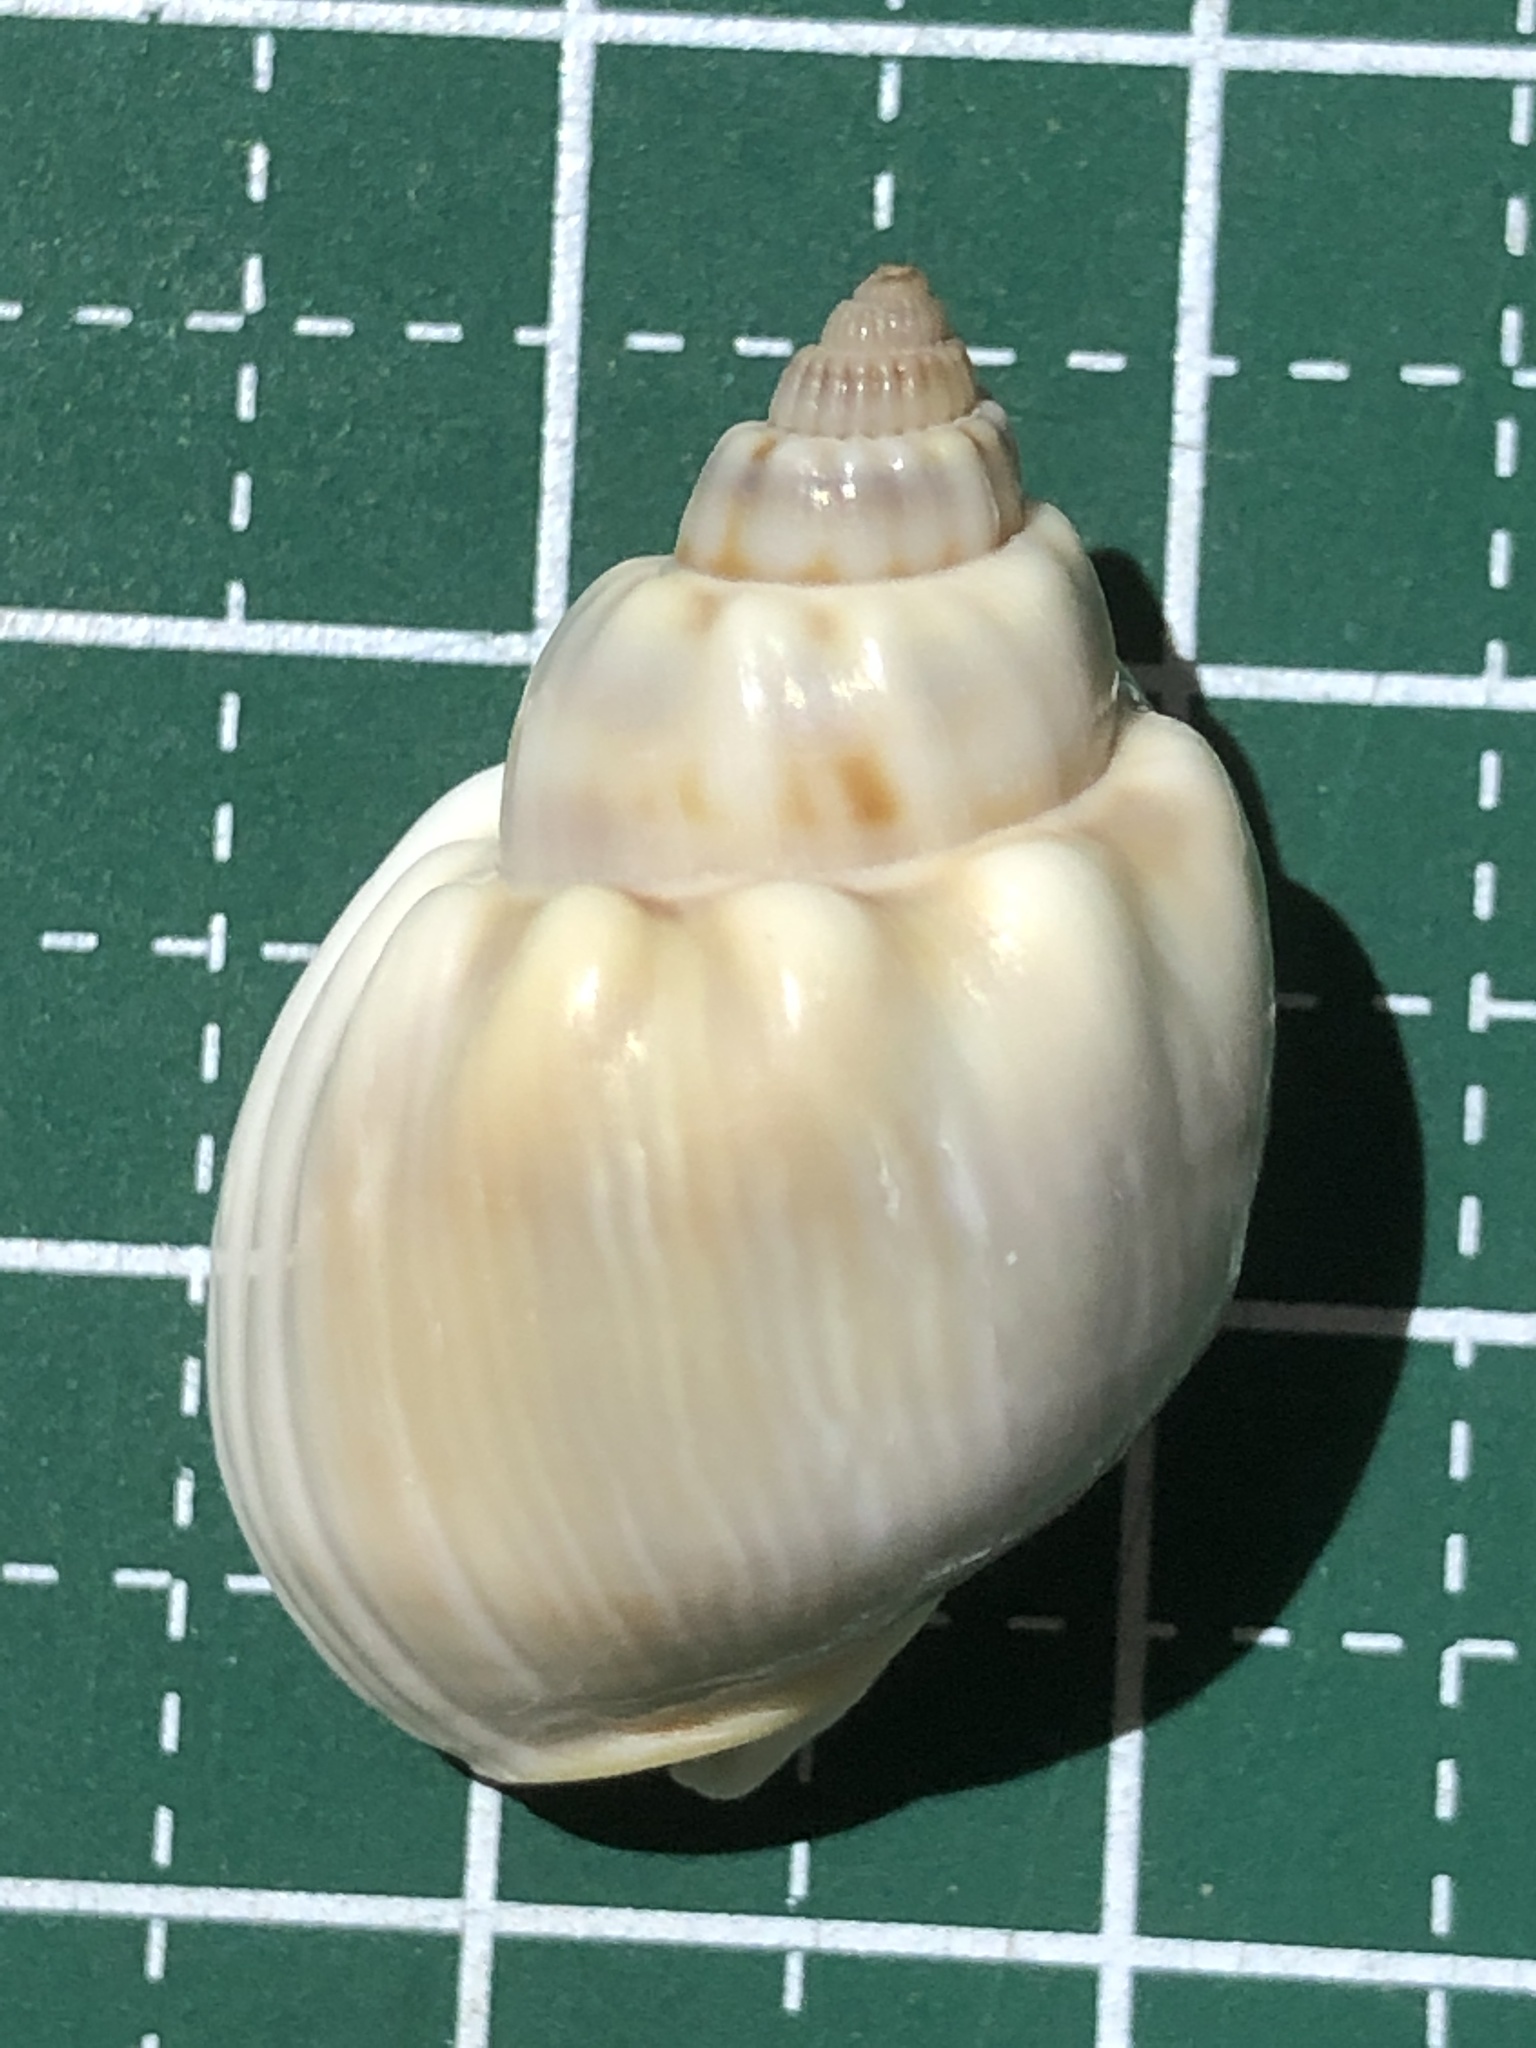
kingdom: Animalia
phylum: Mollusca
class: Gastropoda
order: Neogastropoda
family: Nassariidae
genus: Nassarius
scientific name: Nassarius coronatus
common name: Crowned nassa
